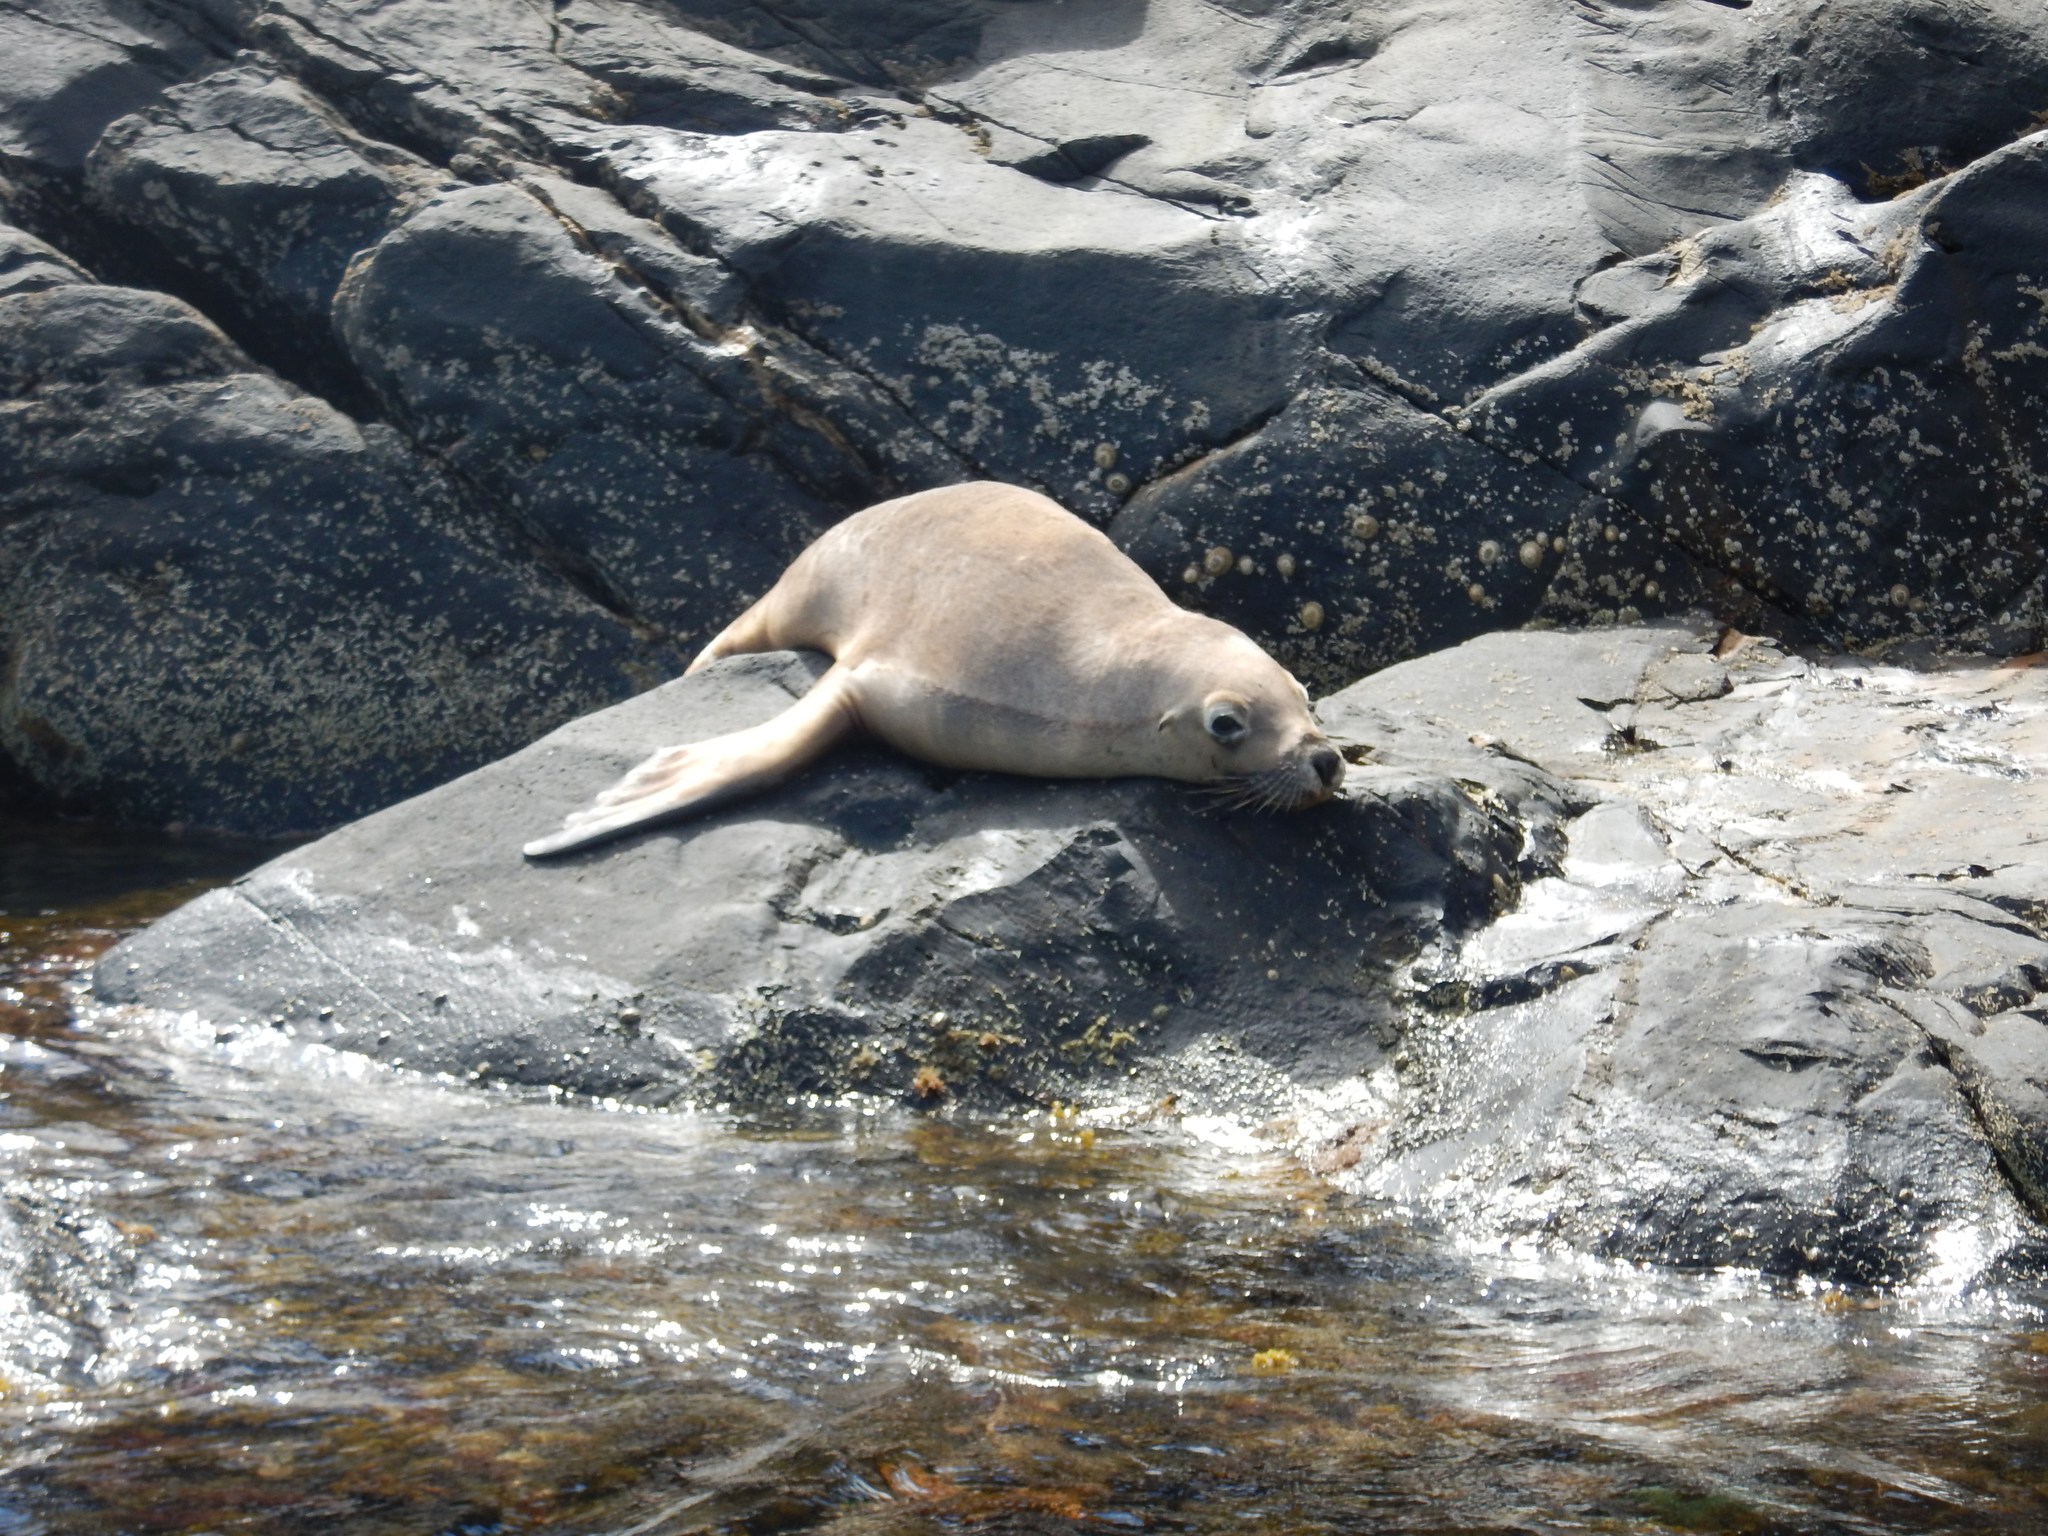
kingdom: Animalia
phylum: Chordata
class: Mammalia
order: Carnivora
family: Otariidae
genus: Neophoca
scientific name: Neophoca cinerea
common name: Australian sea lion
